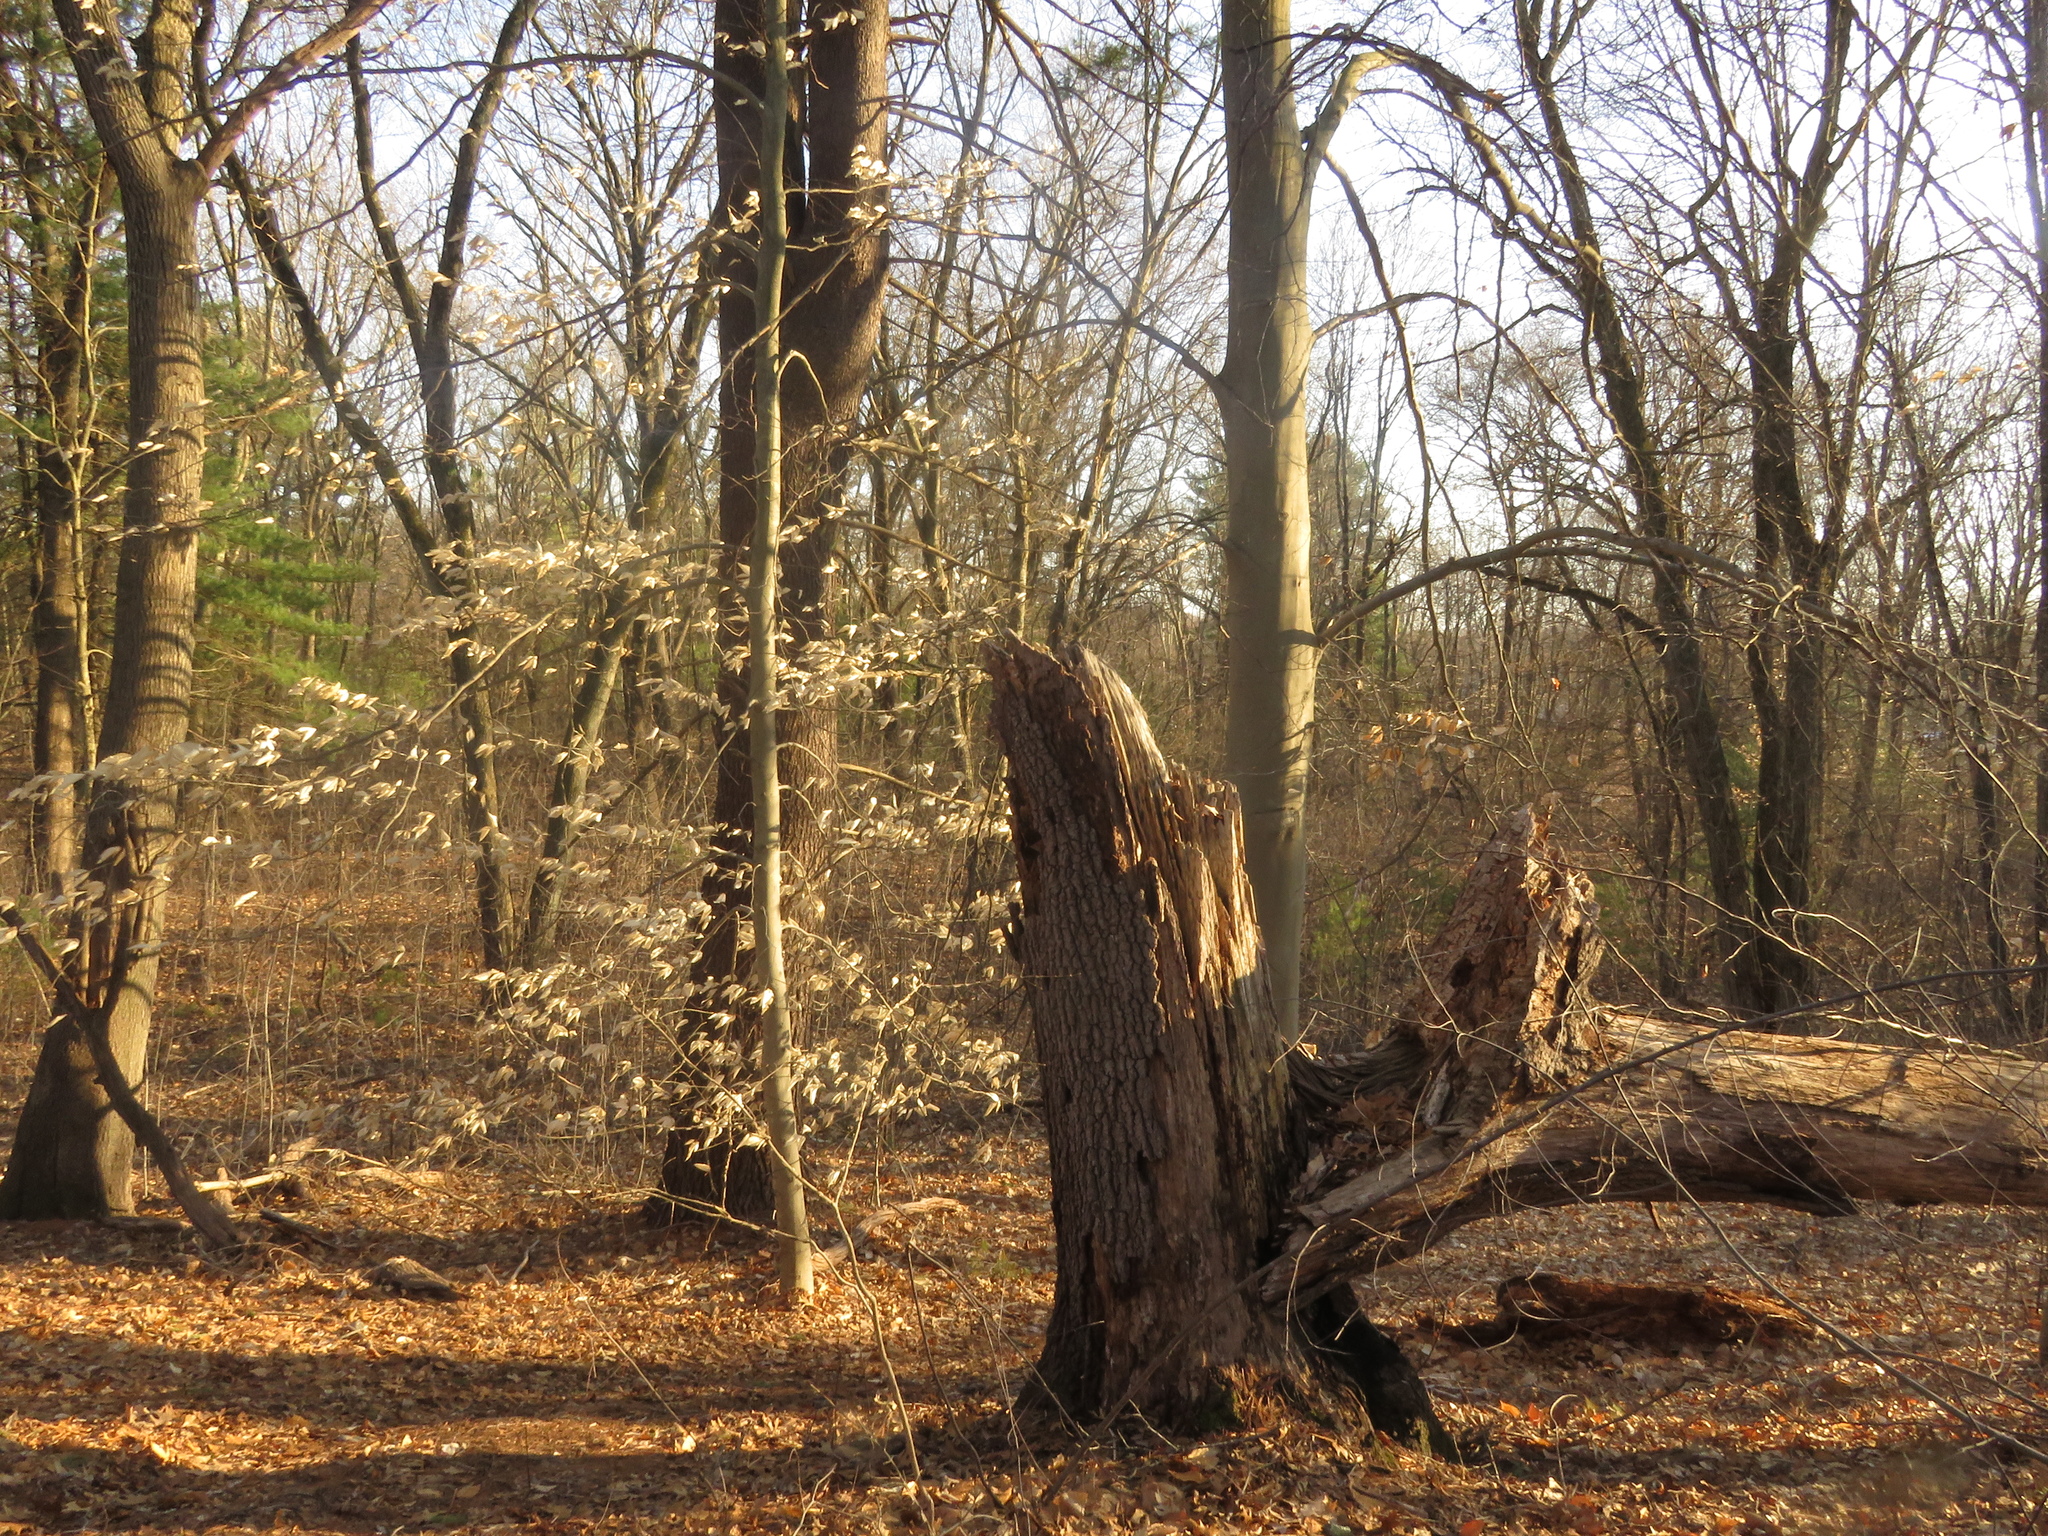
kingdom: Plantae
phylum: Tracheophyta
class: Magnoliopsida
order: Fagales
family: Fagaceae
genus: Fagus
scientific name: Fagus grandifolia
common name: American beech
